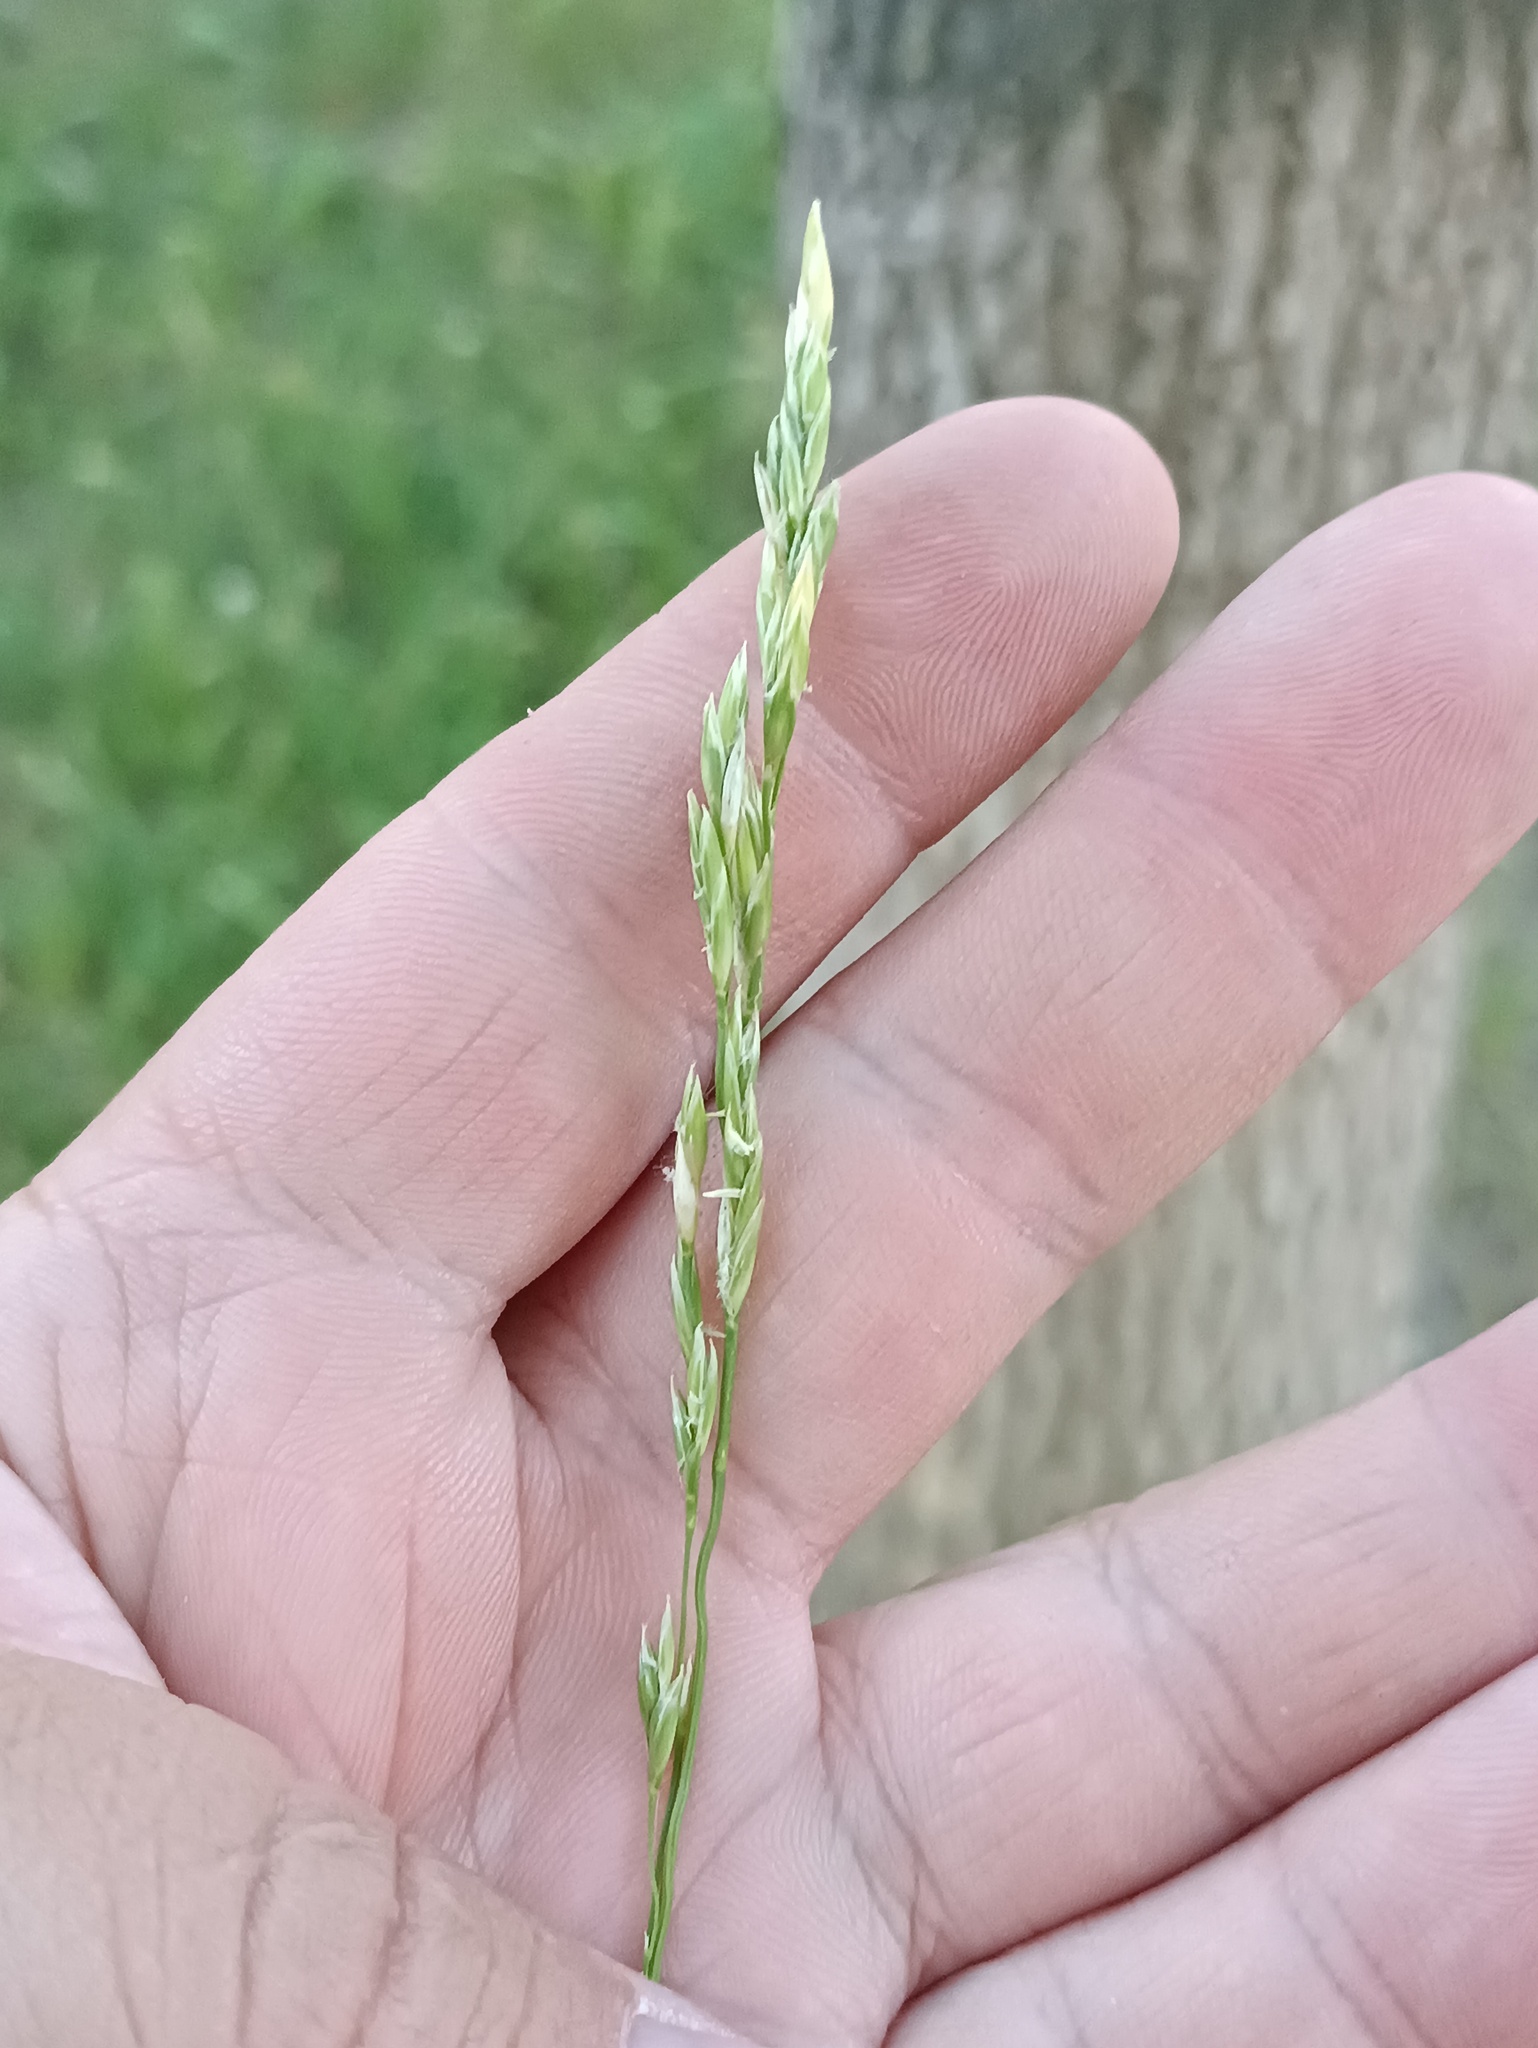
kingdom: Plantae
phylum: Tracheophyta
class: Liliopsida
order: Poales
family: Poaceae
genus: Lolium
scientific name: Lolium pratense
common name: Dover grass
